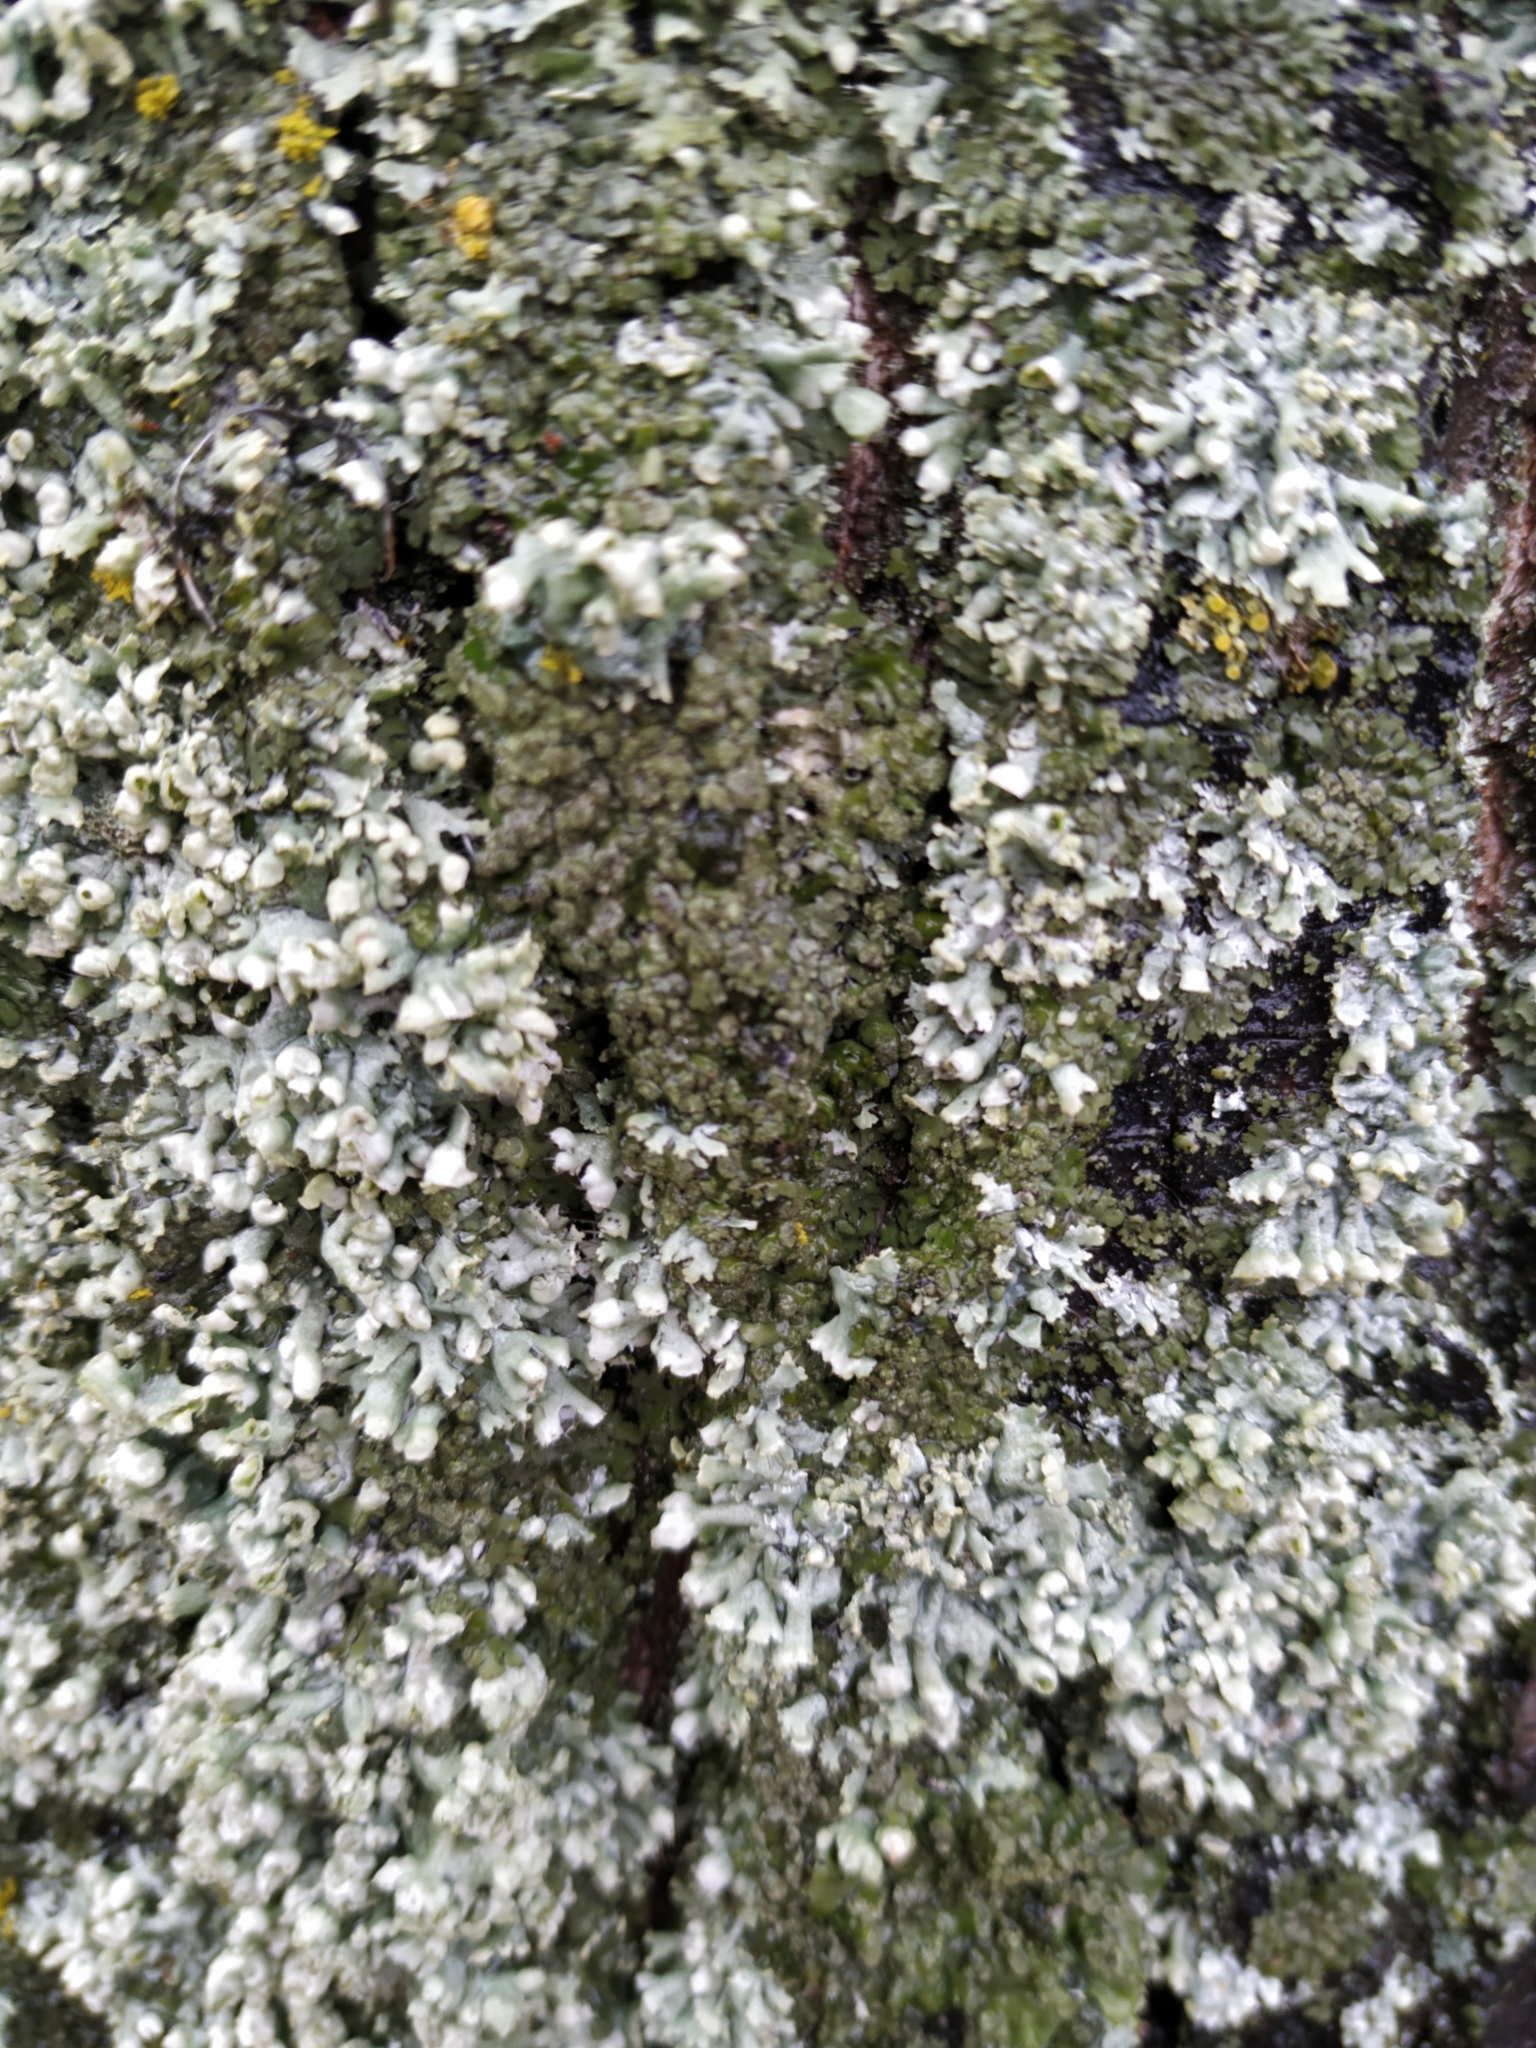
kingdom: Fungi
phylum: Ascomycota
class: Lecanoromycetes
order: Caliciales
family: Physciaceae
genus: Physcia
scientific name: Physcia adscendens
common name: Hooded rosette lichen
